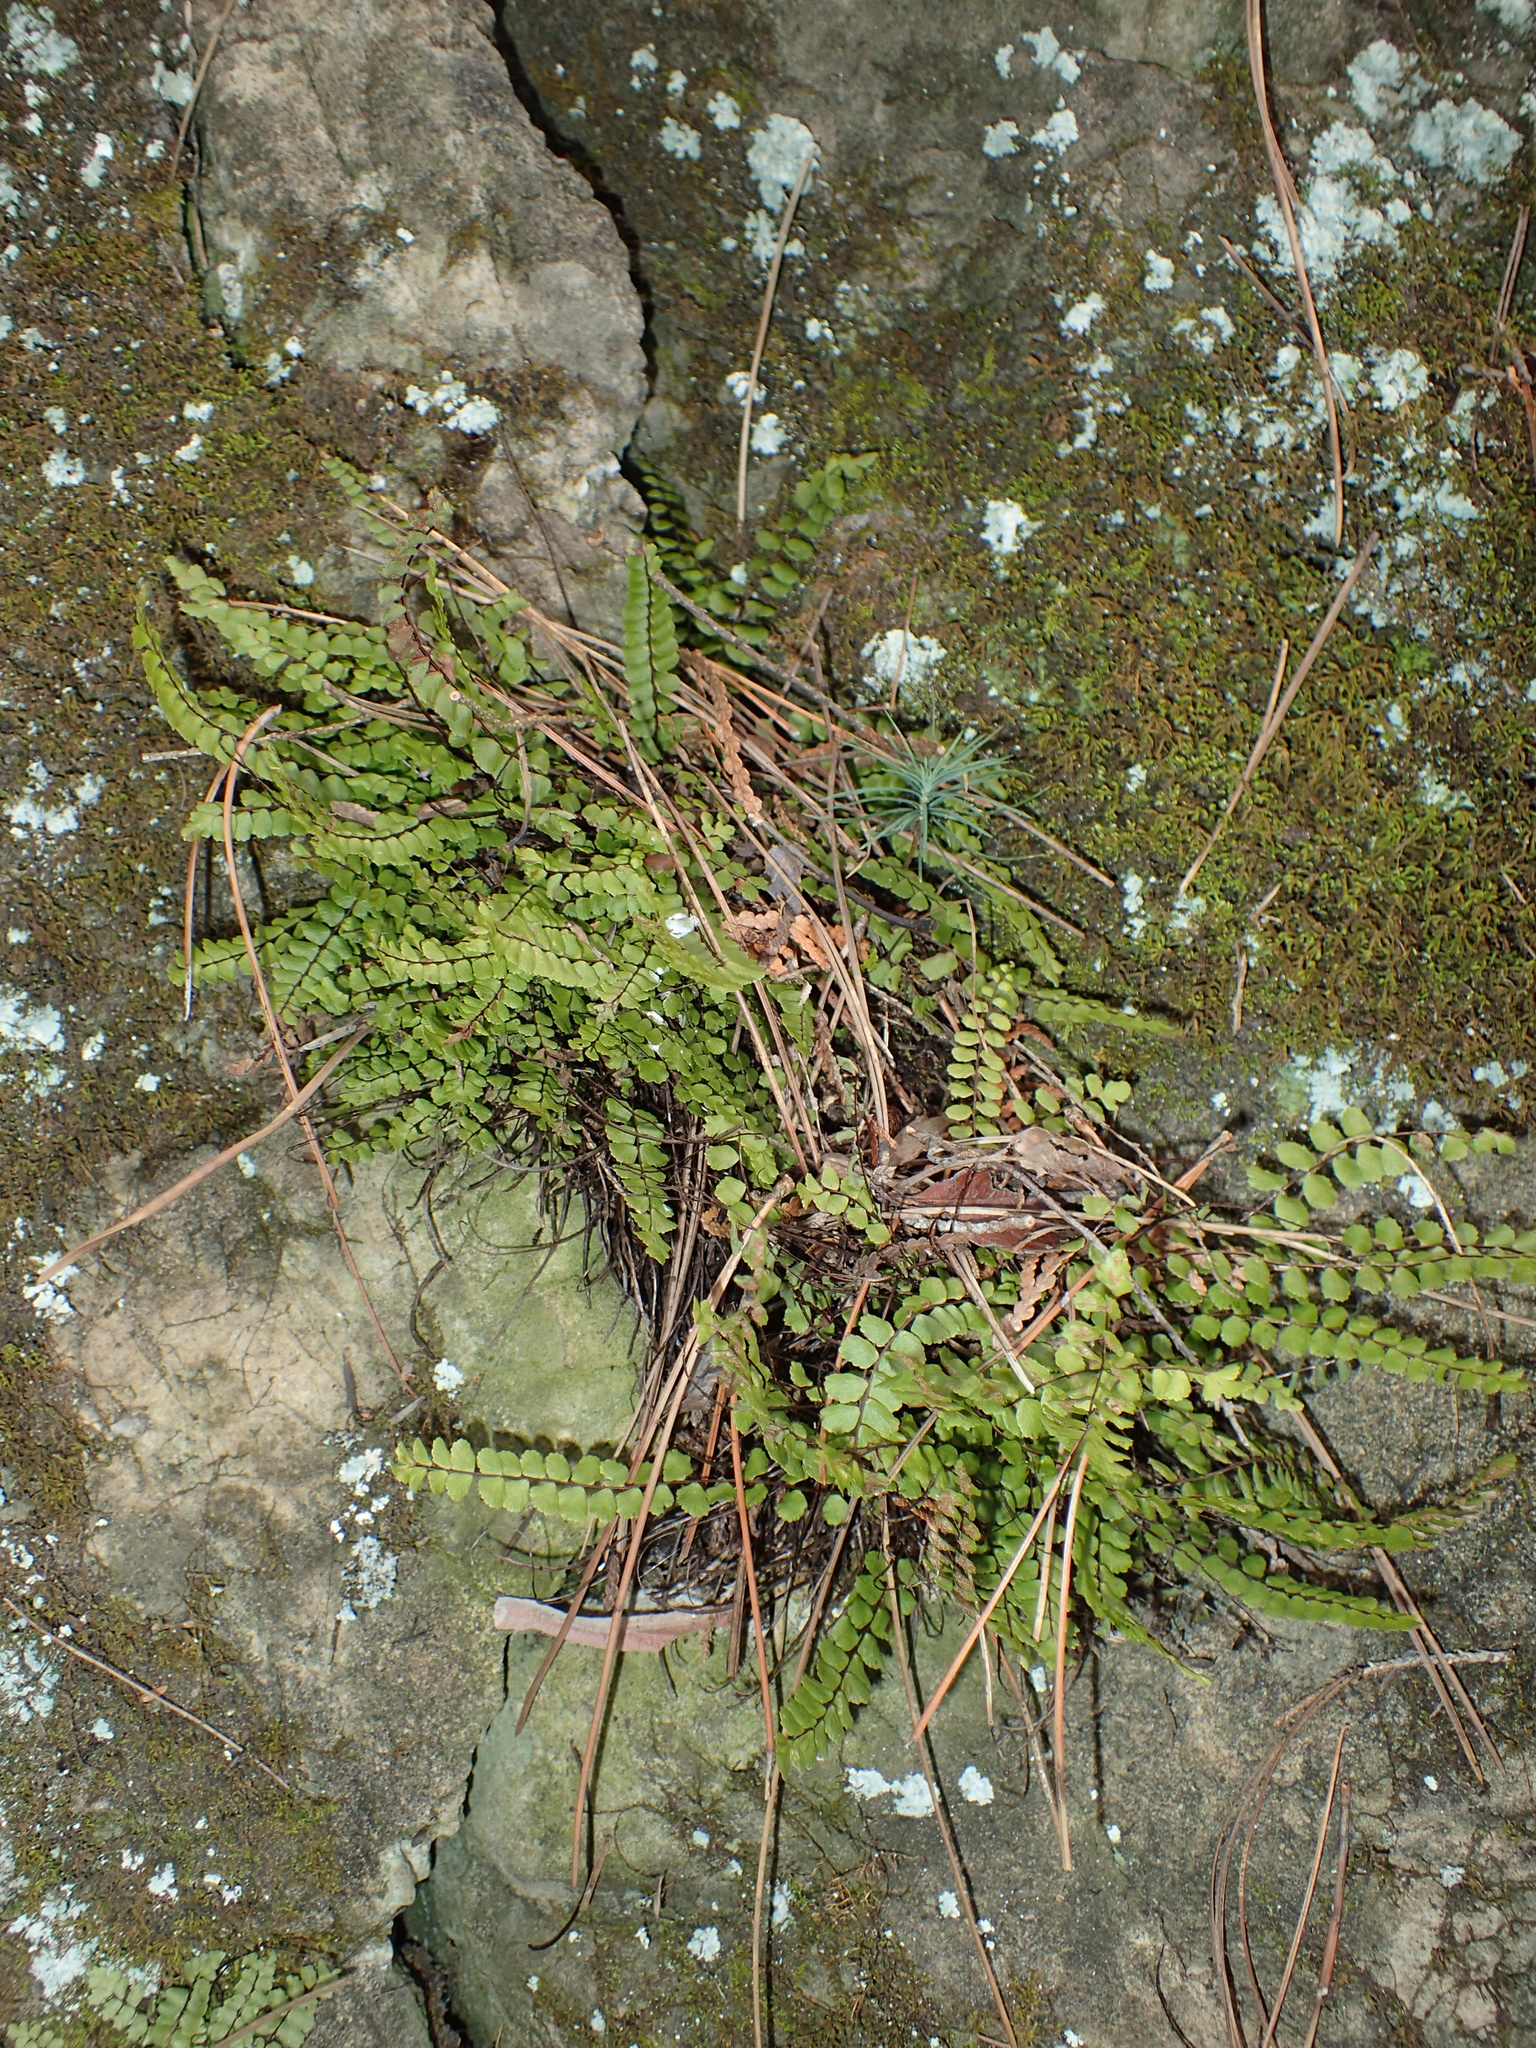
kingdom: Plantae
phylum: Tracheophyta
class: Polypodiopsida
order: Polypodiales
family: Aspleniaceae
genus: Asplenium
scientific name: Asplenium trichomanes
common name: Maidenhair spleenwort
